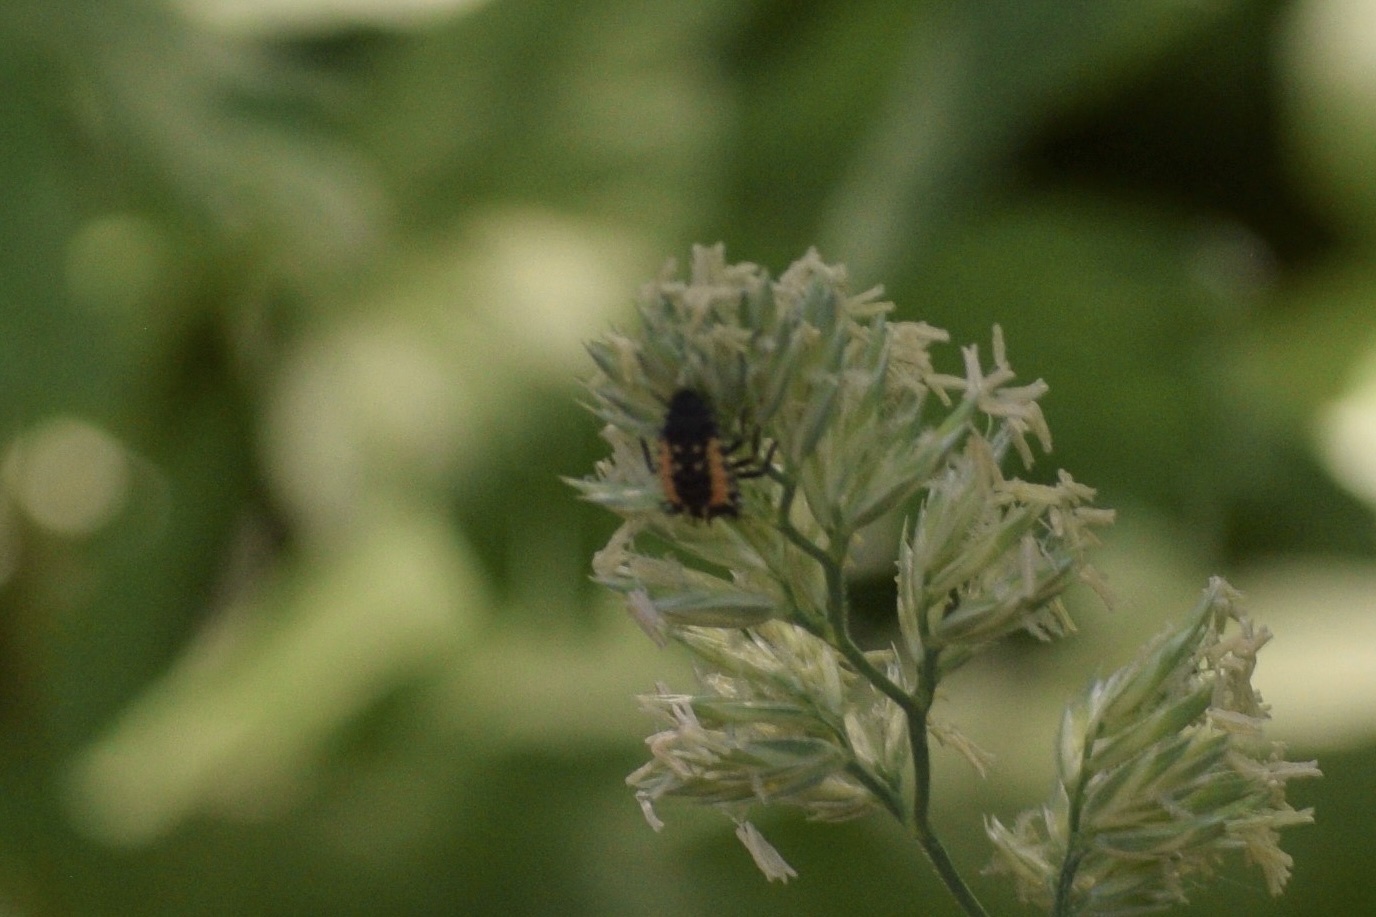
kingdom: Animalia
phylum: Arthropoda
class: Insecta
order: Coleoptera
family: Coccinellidae
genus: Harmonia
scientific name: Harmonia axyridis
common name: Harlequin ladybird
